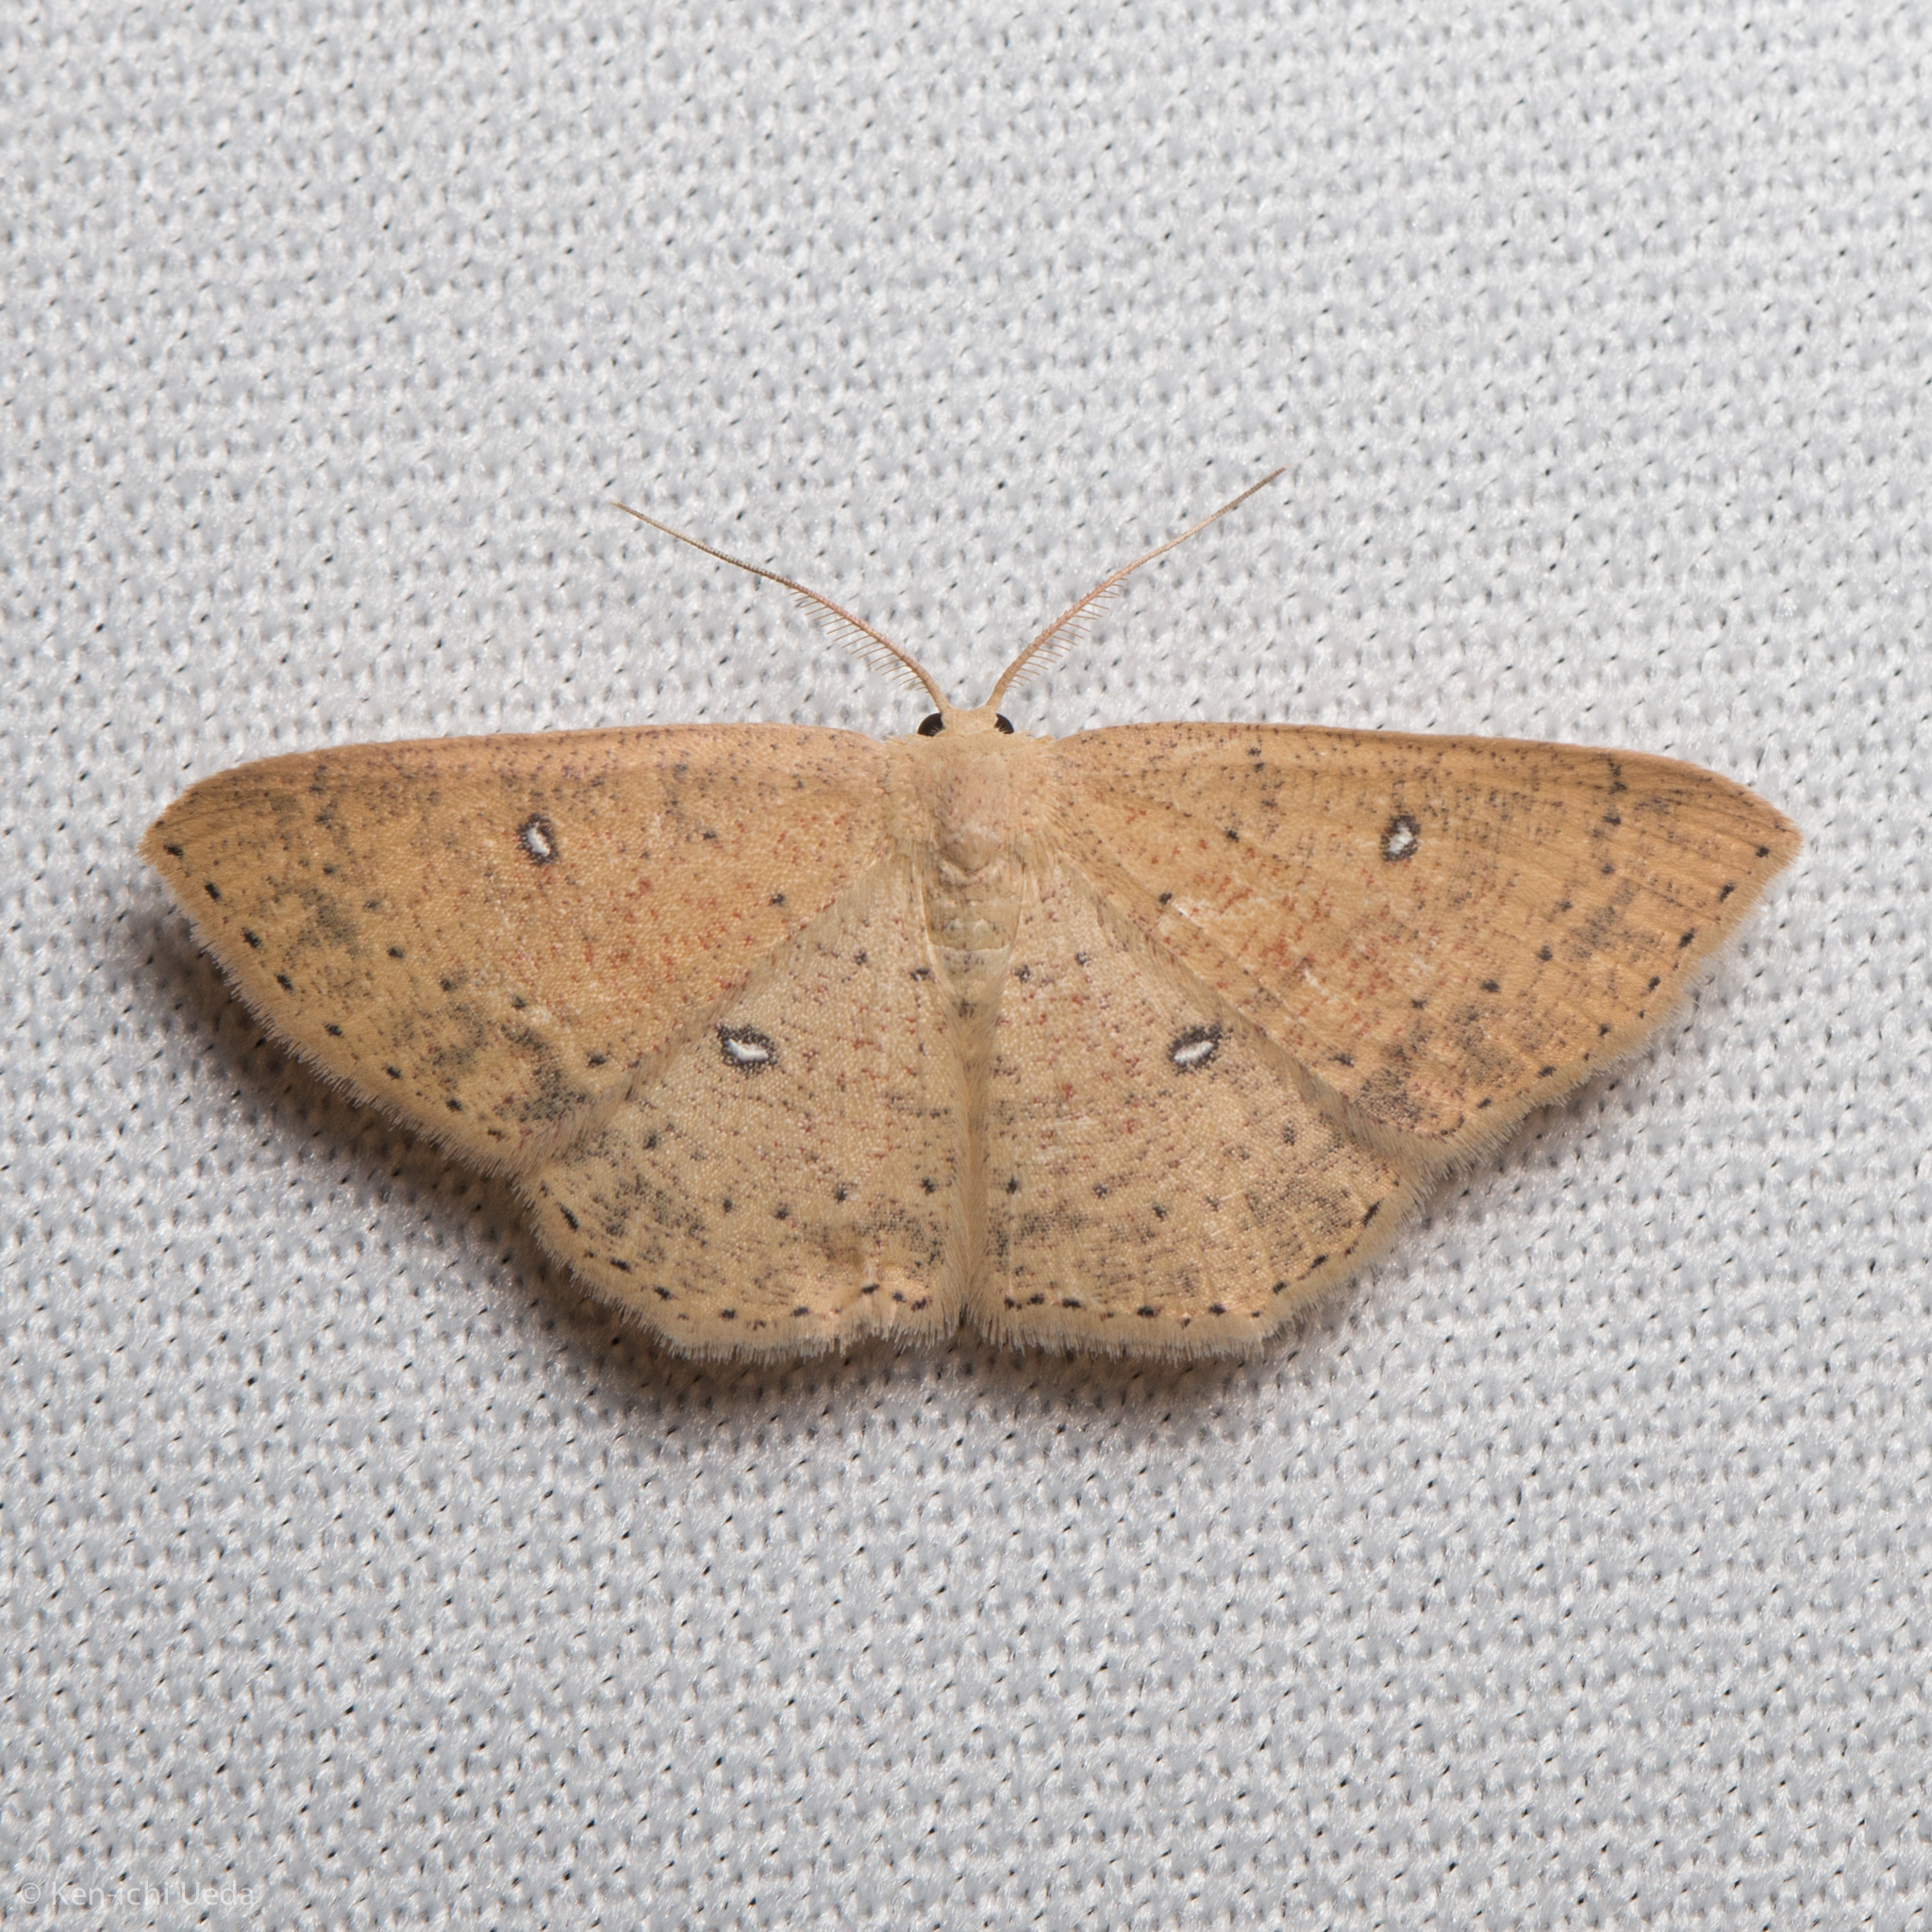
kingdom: Animalia
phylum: Arthropoda
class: Insecta
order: Lepidoptera
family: Geometridae
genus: Cyclophora
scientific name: Cyclophora dataria
